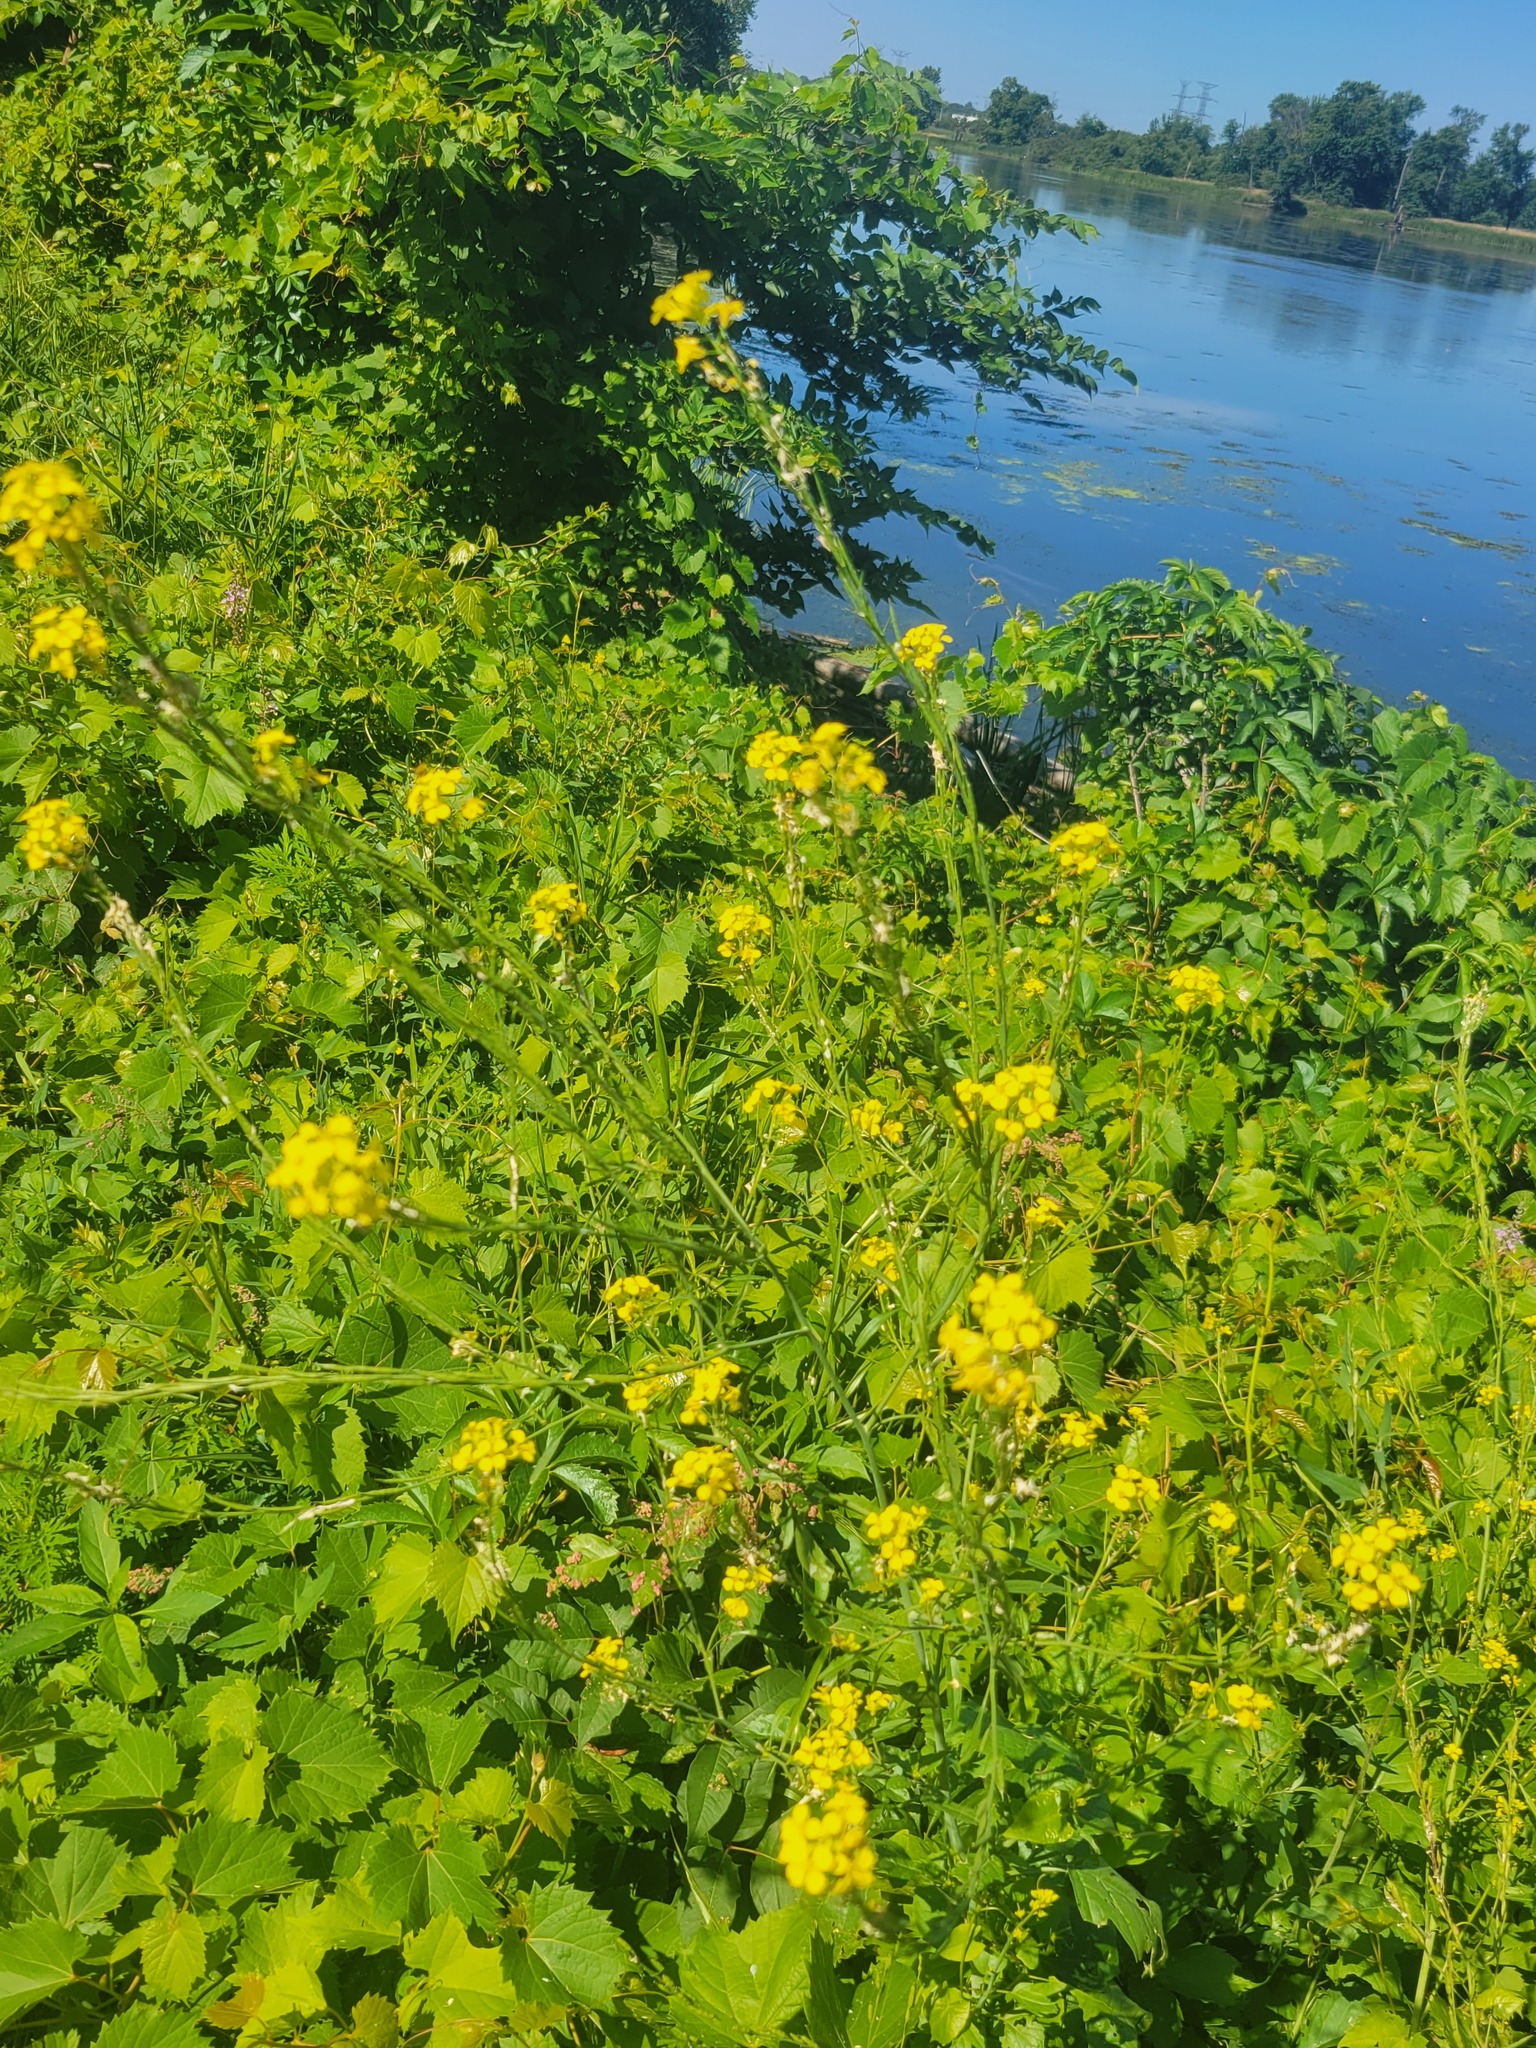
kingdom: Plantae
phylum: Tracheophyta
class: Magnoliopsida
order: Lamiales
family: Lamiaceae
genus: Teucrium
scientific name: Teucrium canadense
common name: American germander
